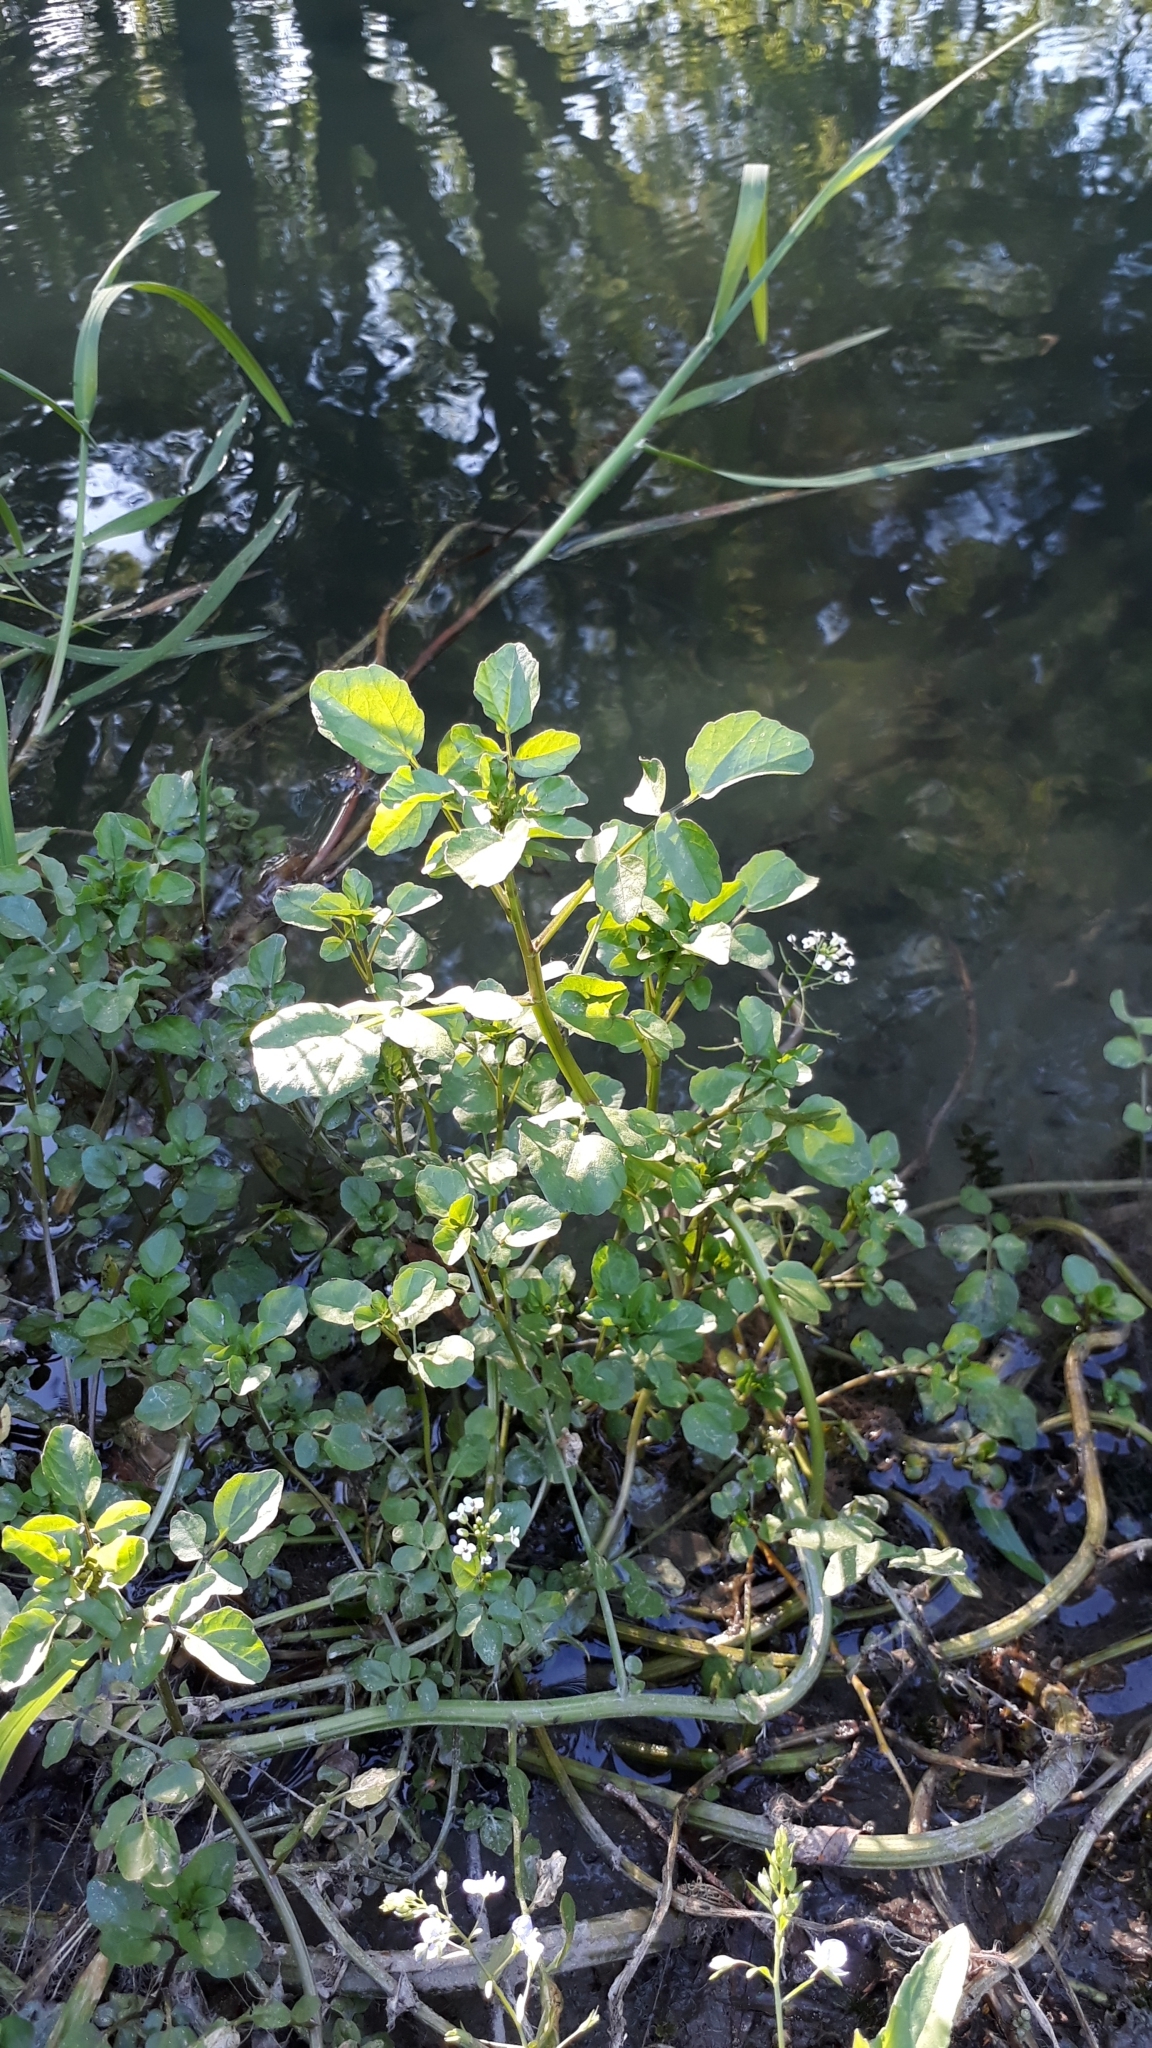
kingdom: Plantae
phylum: Tracheophyta
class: Magnoliopsida
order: Brassicales
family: Brassicaceae
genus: Nasturtium
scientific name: Nasturtium officinale
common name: Watercress
